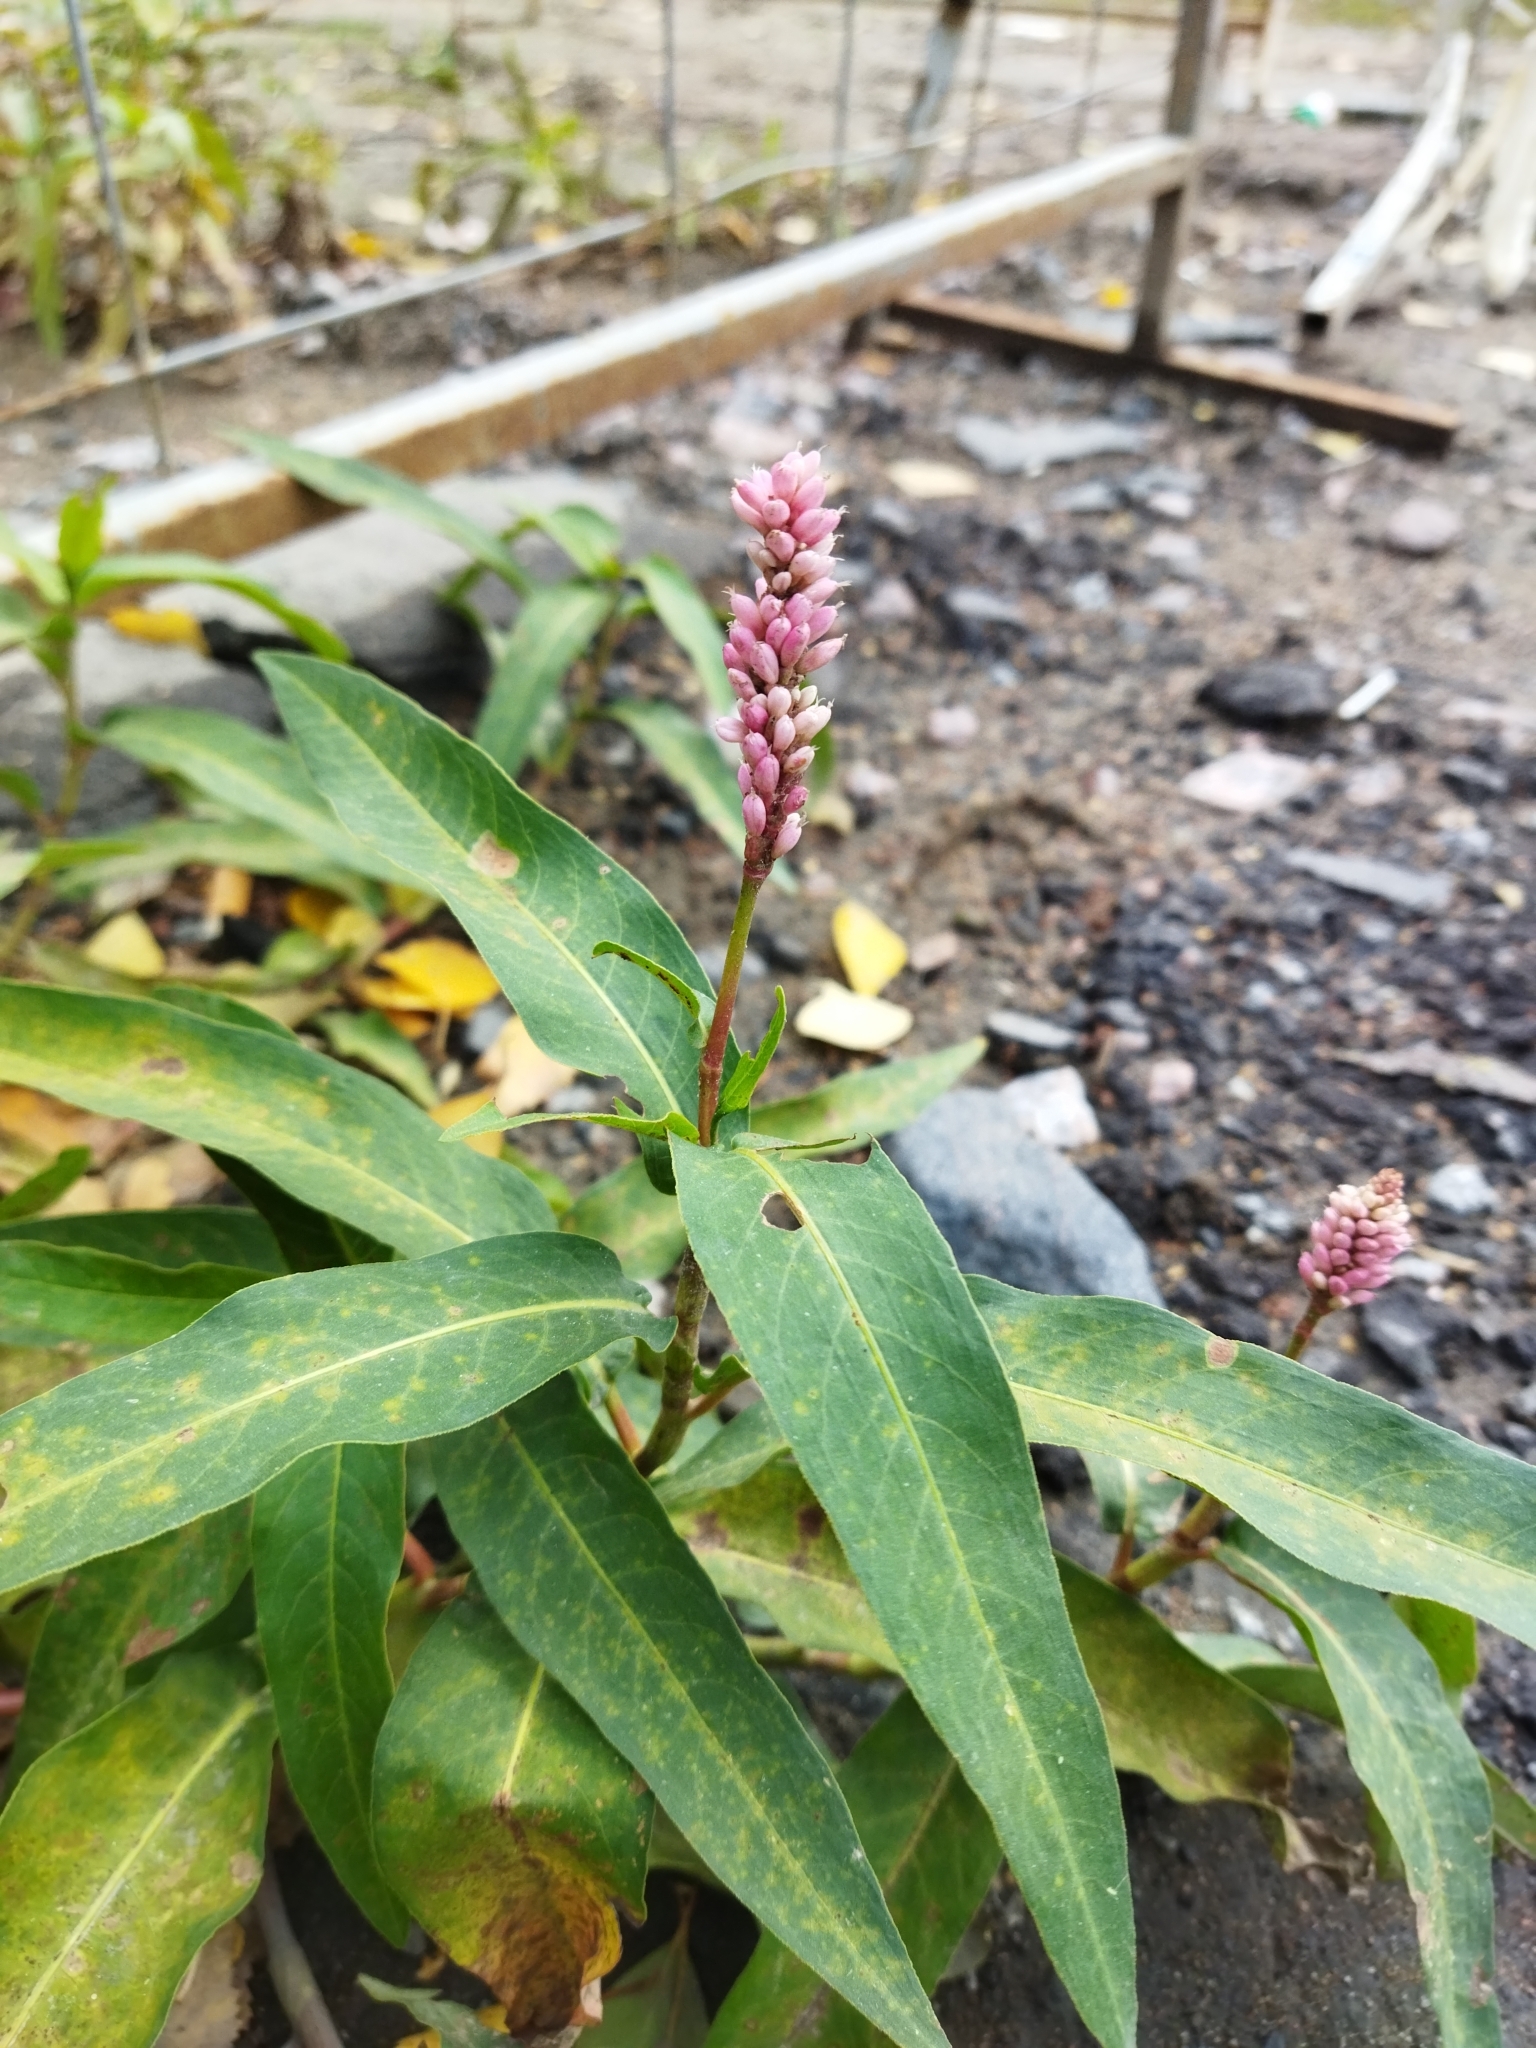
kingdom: Plantae
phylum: Tracheophyta
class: Magnoliopsida
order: Caryophyllales
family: Polygonaceae
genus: Persicaria
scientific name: Persicaria amphibia
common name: Amphibious bistort
